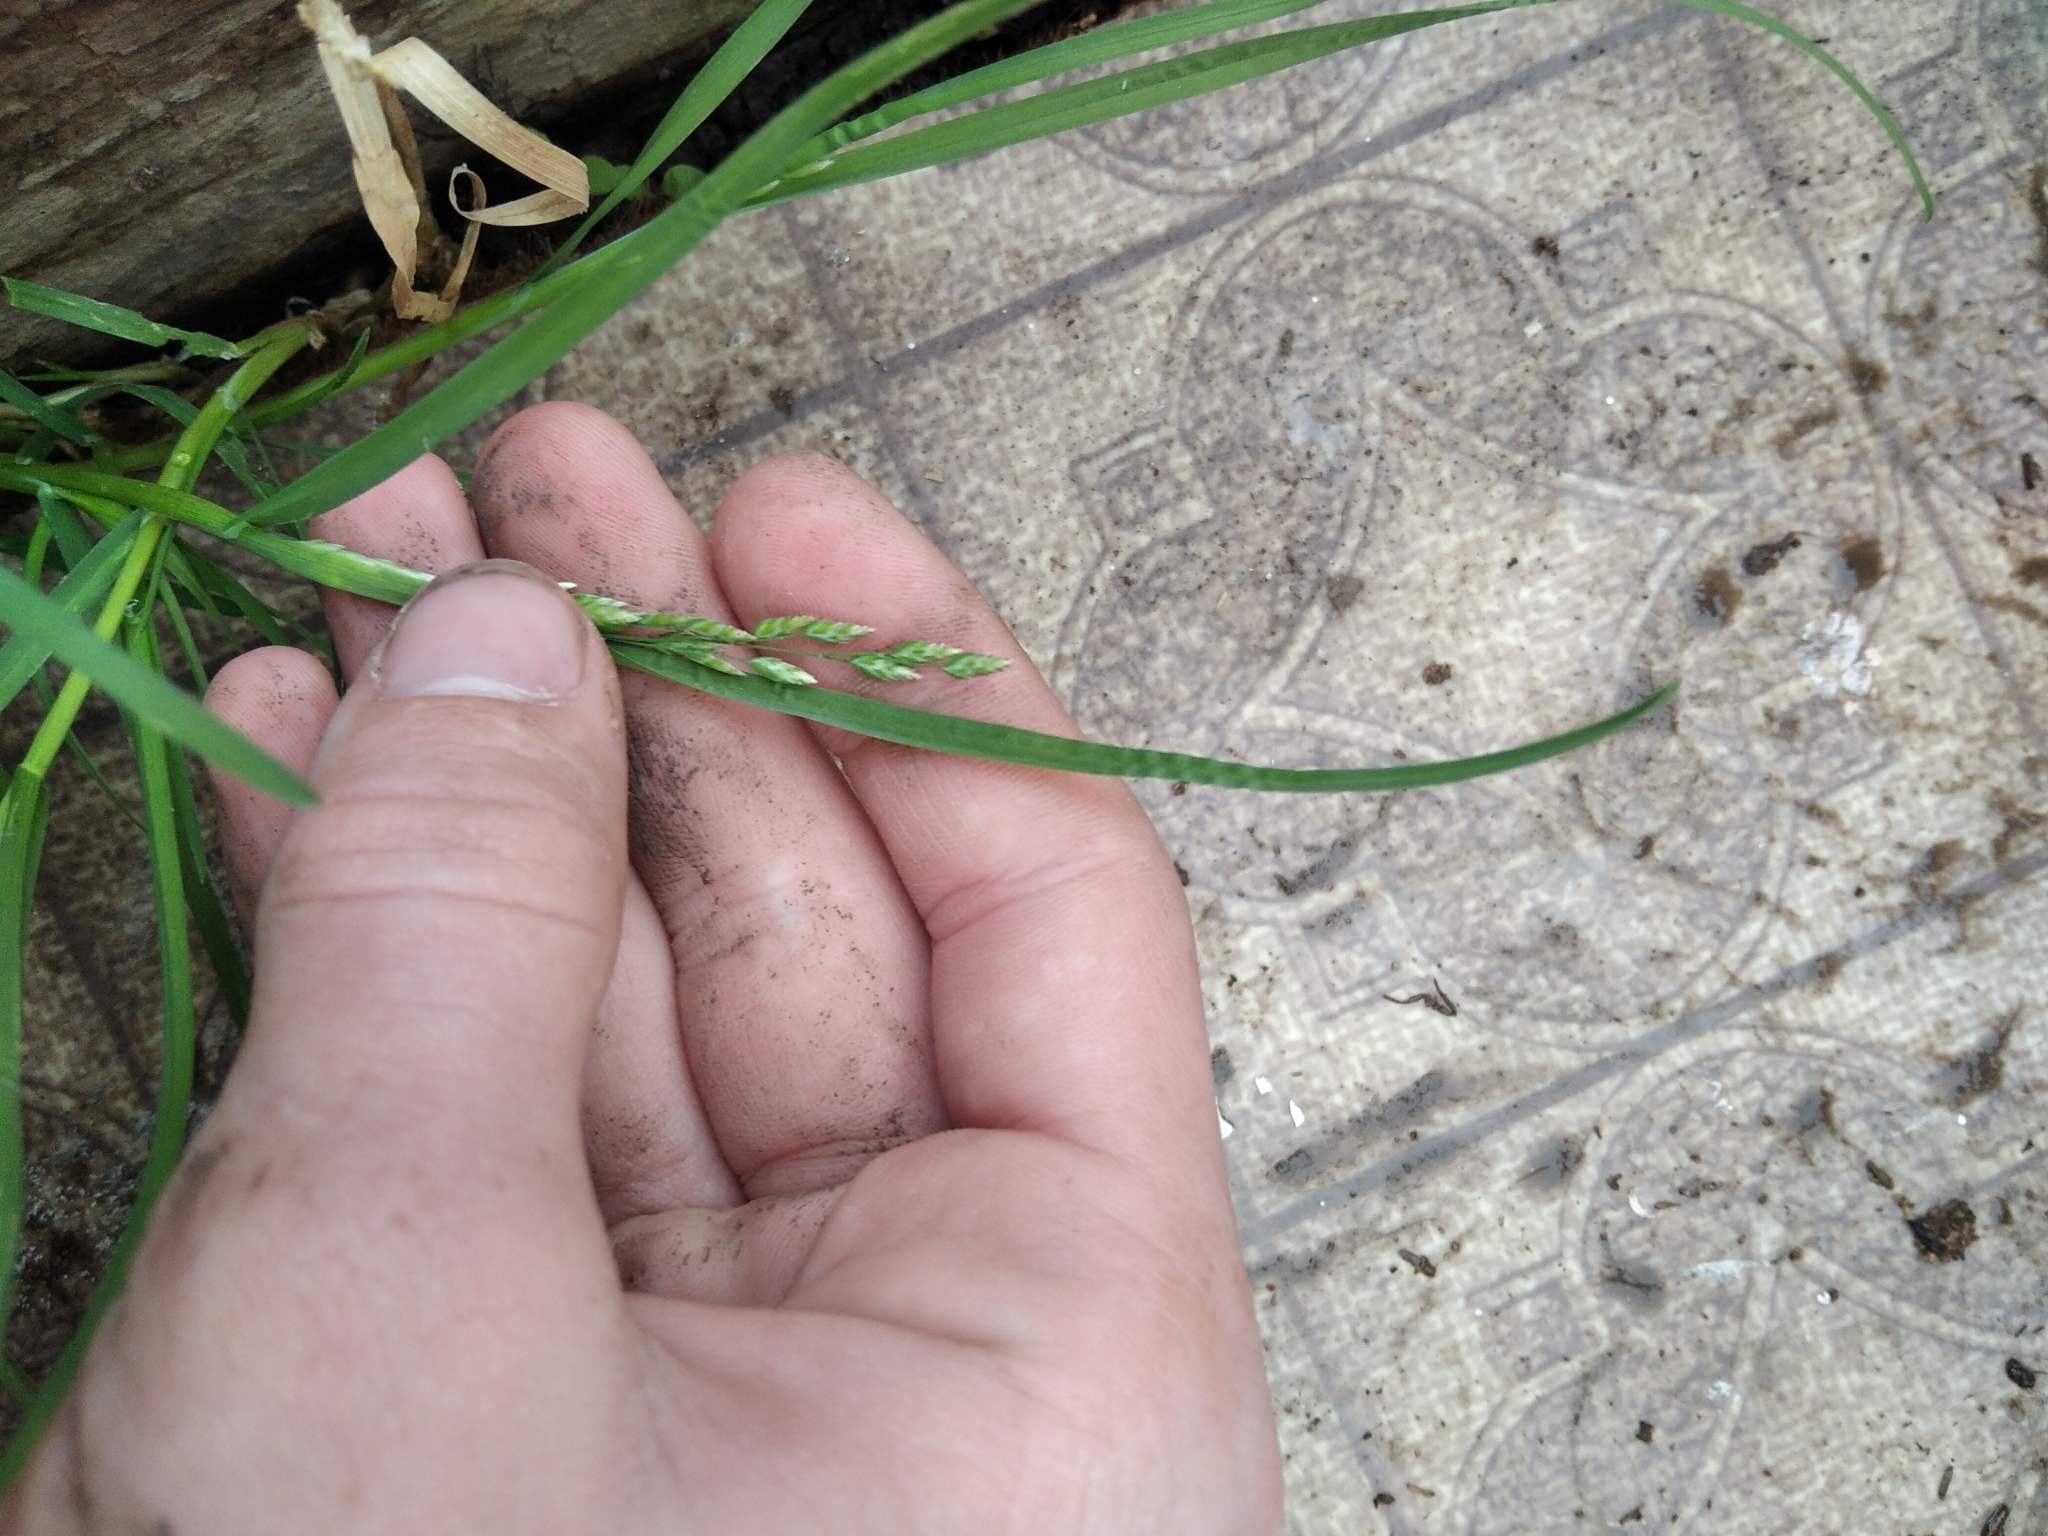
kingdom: Plantae
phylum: Tracheophyta
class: Liliopsida
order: Poales
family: Poaceae
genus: Poa
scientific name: Poa annua
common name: Annual bluegrass
